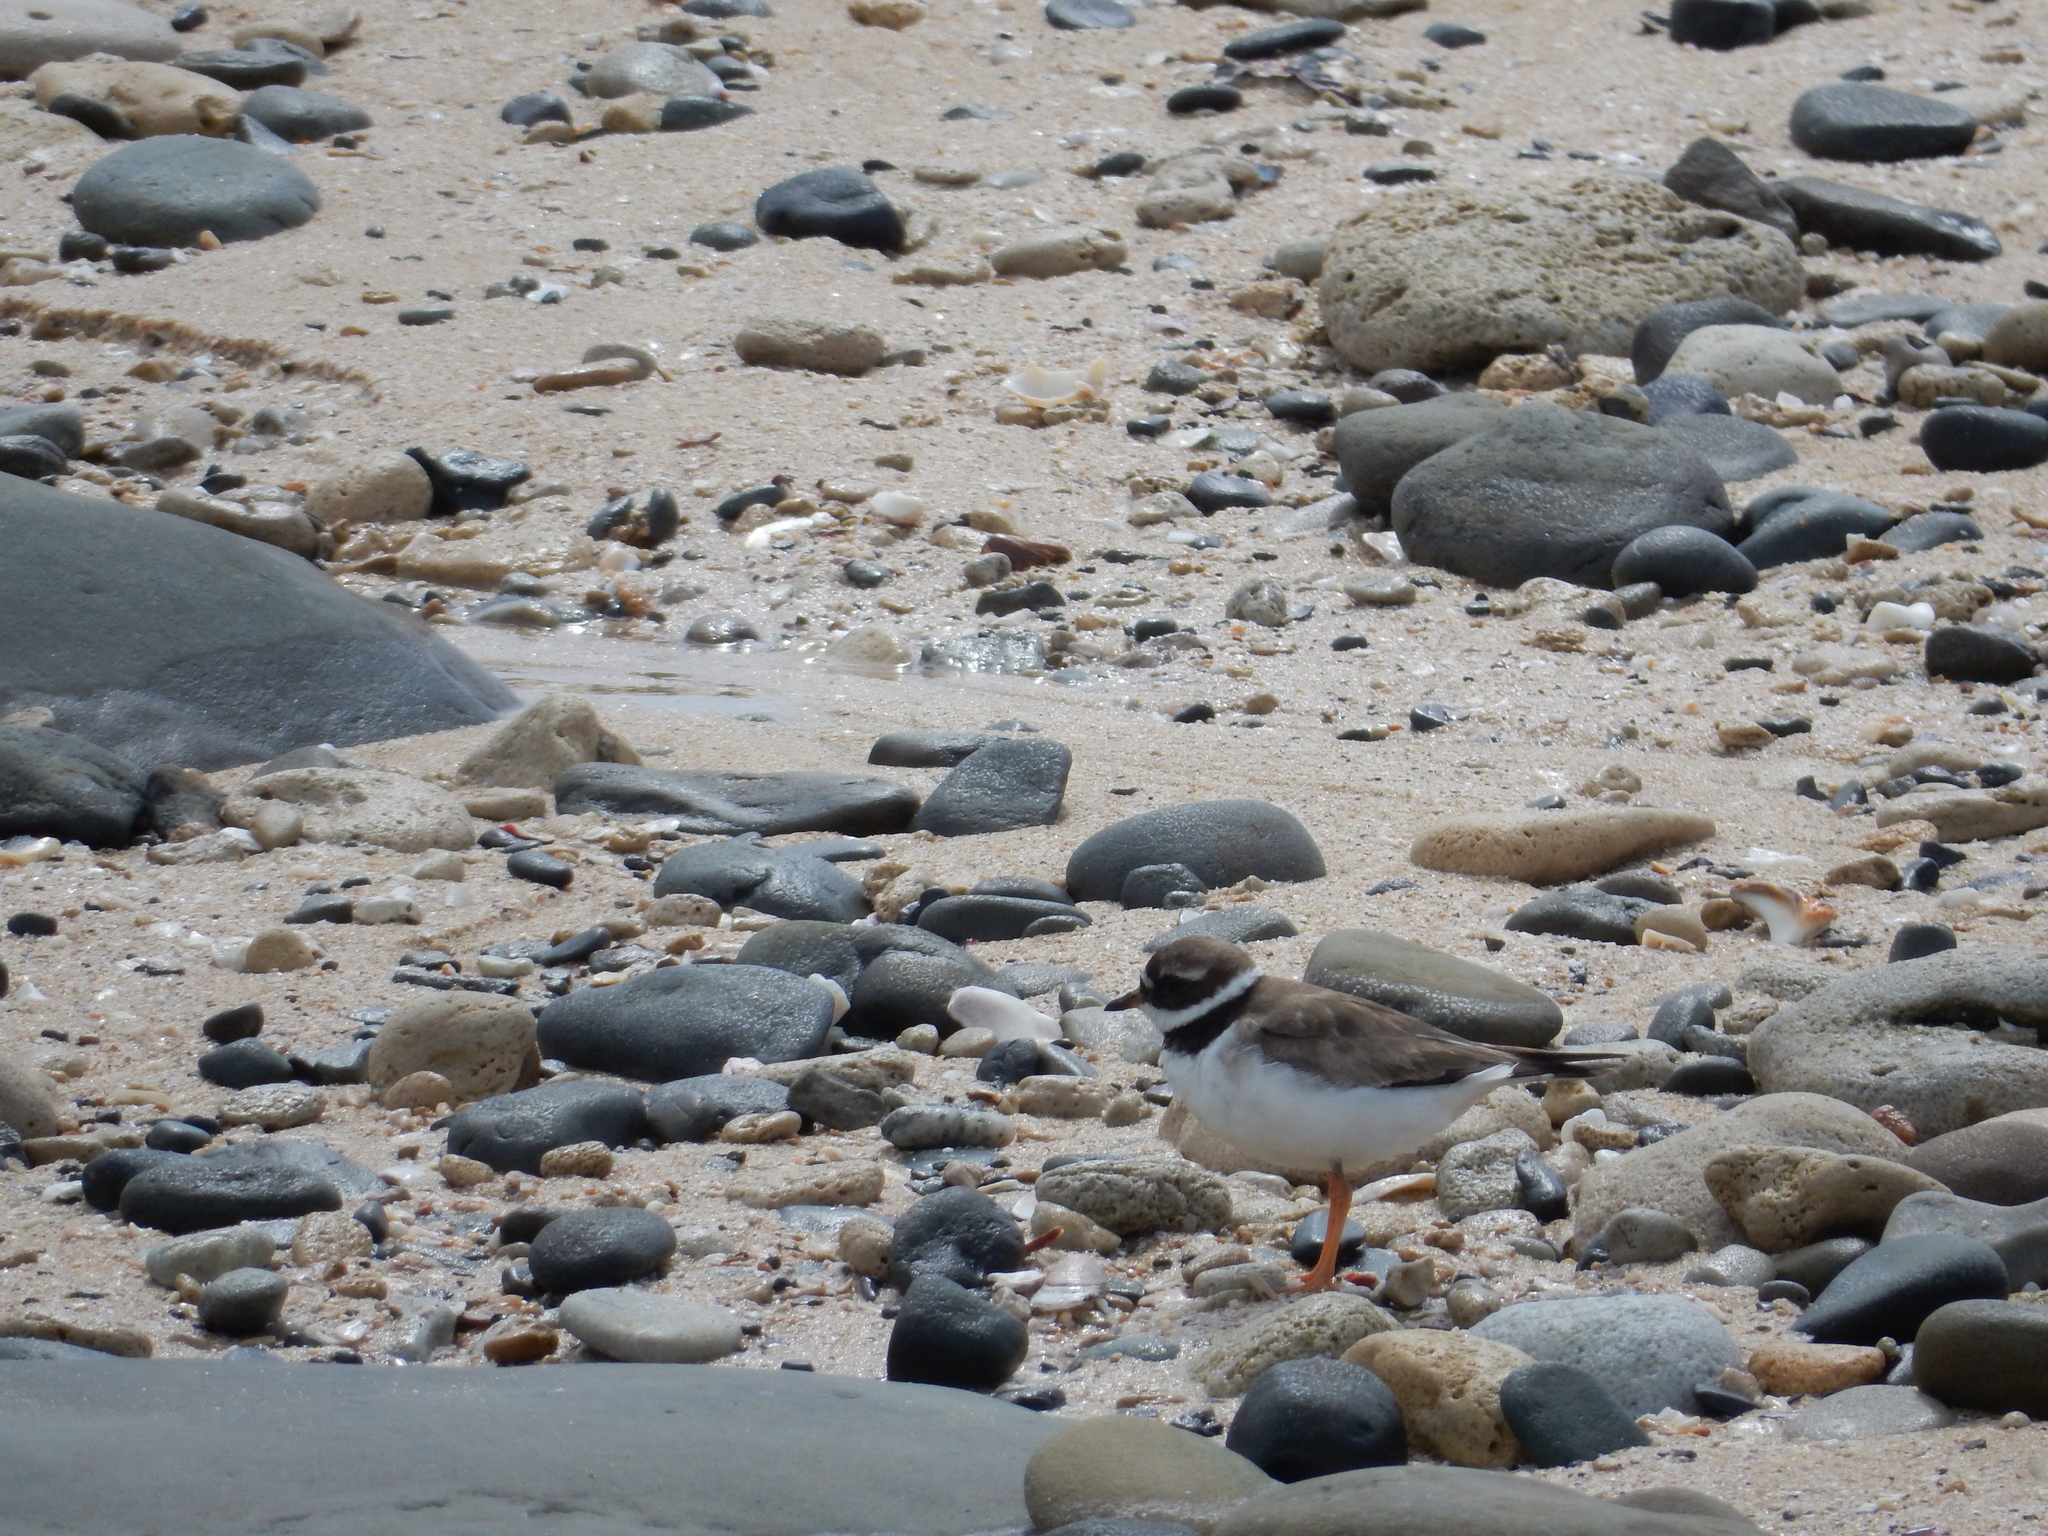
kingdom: Animalia
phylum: Chordata
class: Aves
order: Charadriiformes
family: Charadriidae
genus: Charadrius
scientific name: Charadrius hiaticula
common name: Common ringed plover
